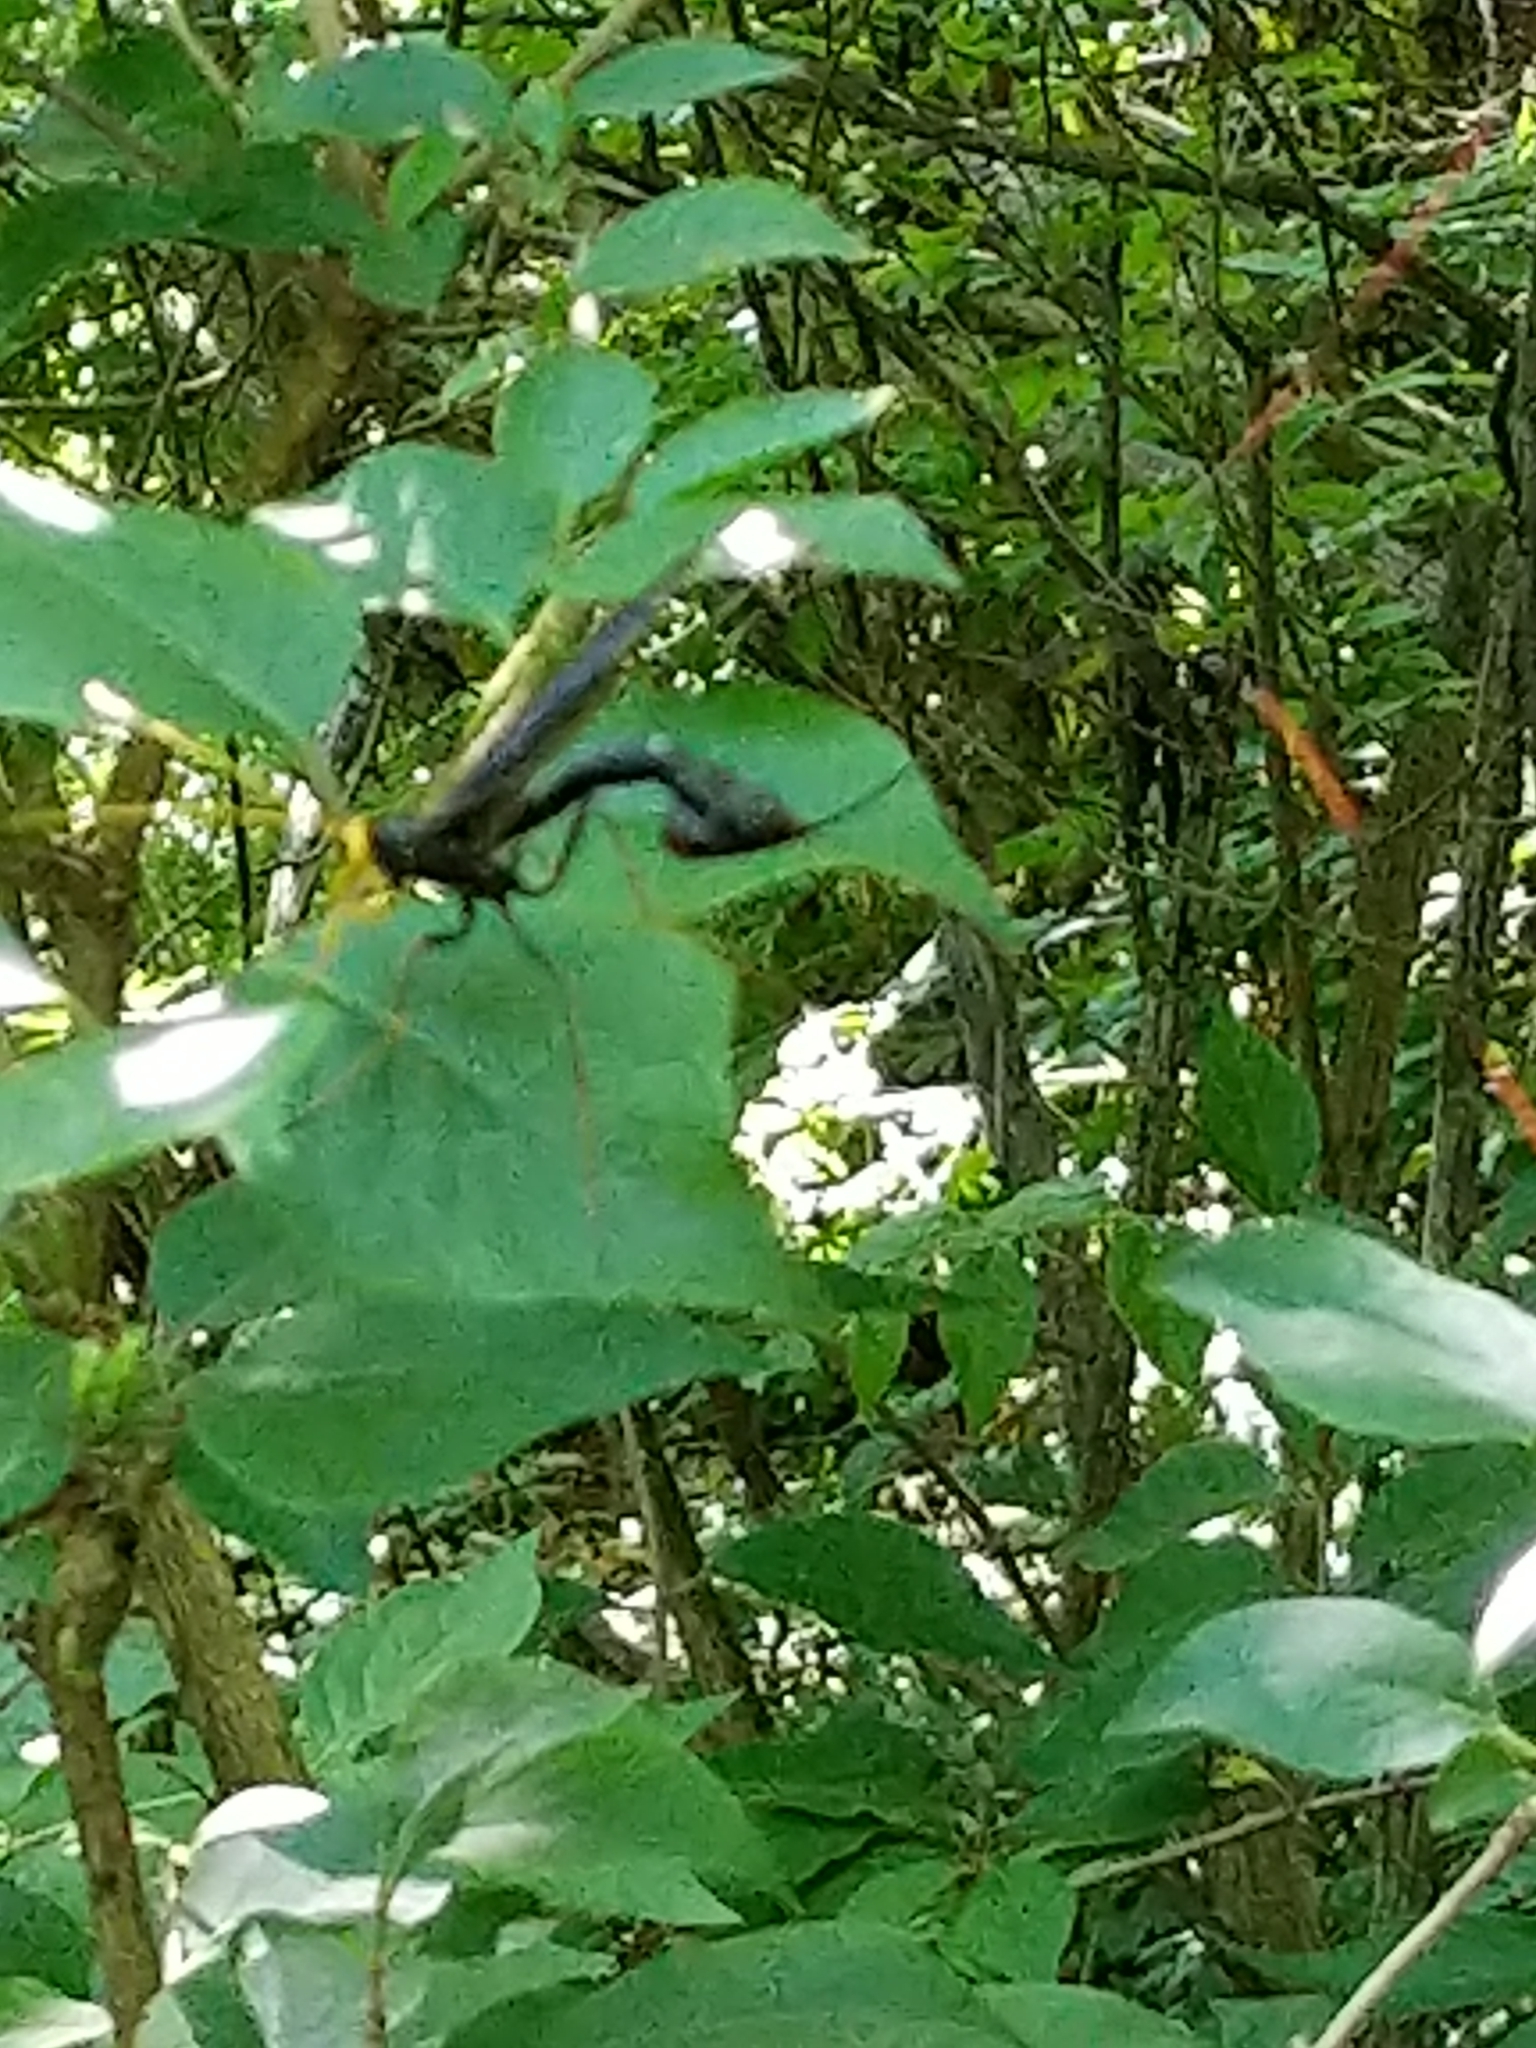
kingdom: Animalia
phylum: Arthropoda
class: Insecta
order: Hymenoptera
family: Ichneumonidae
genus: Megarhyssa
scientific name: Megarhyssa atrata
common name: Black giant ichneumonid wasp
